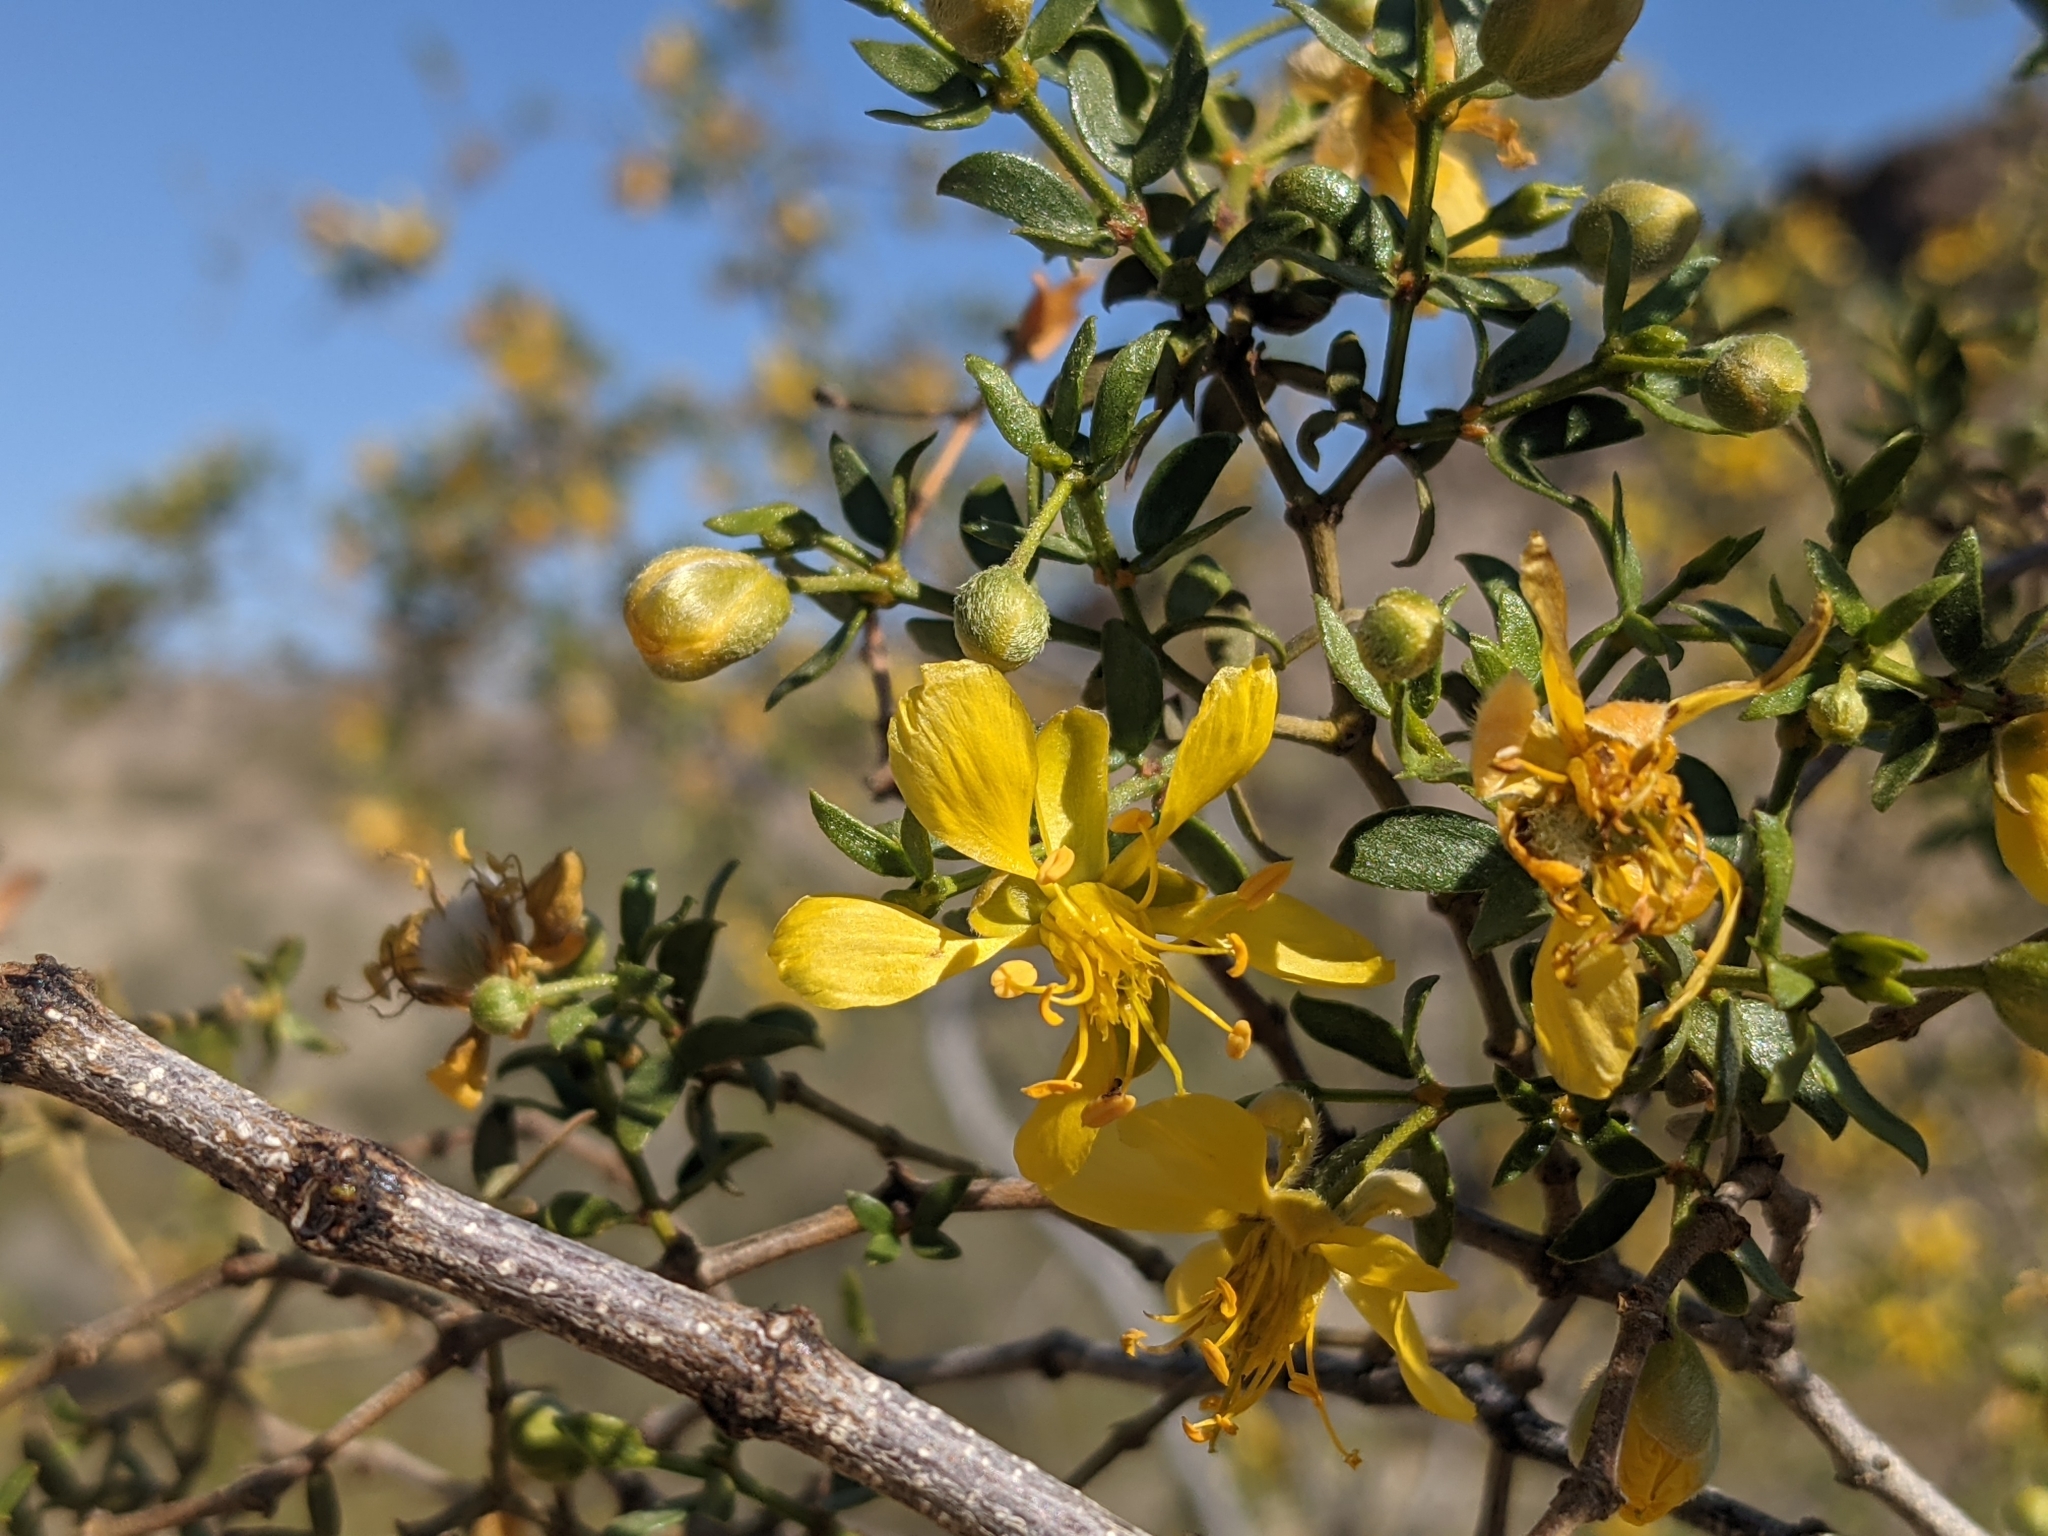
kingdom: Plantae
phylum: Tracheophyta
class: Magnoliopsida
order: Zygophyllales
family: Zygophyllaceae
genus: Larrea
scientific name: Larrea tridentata
